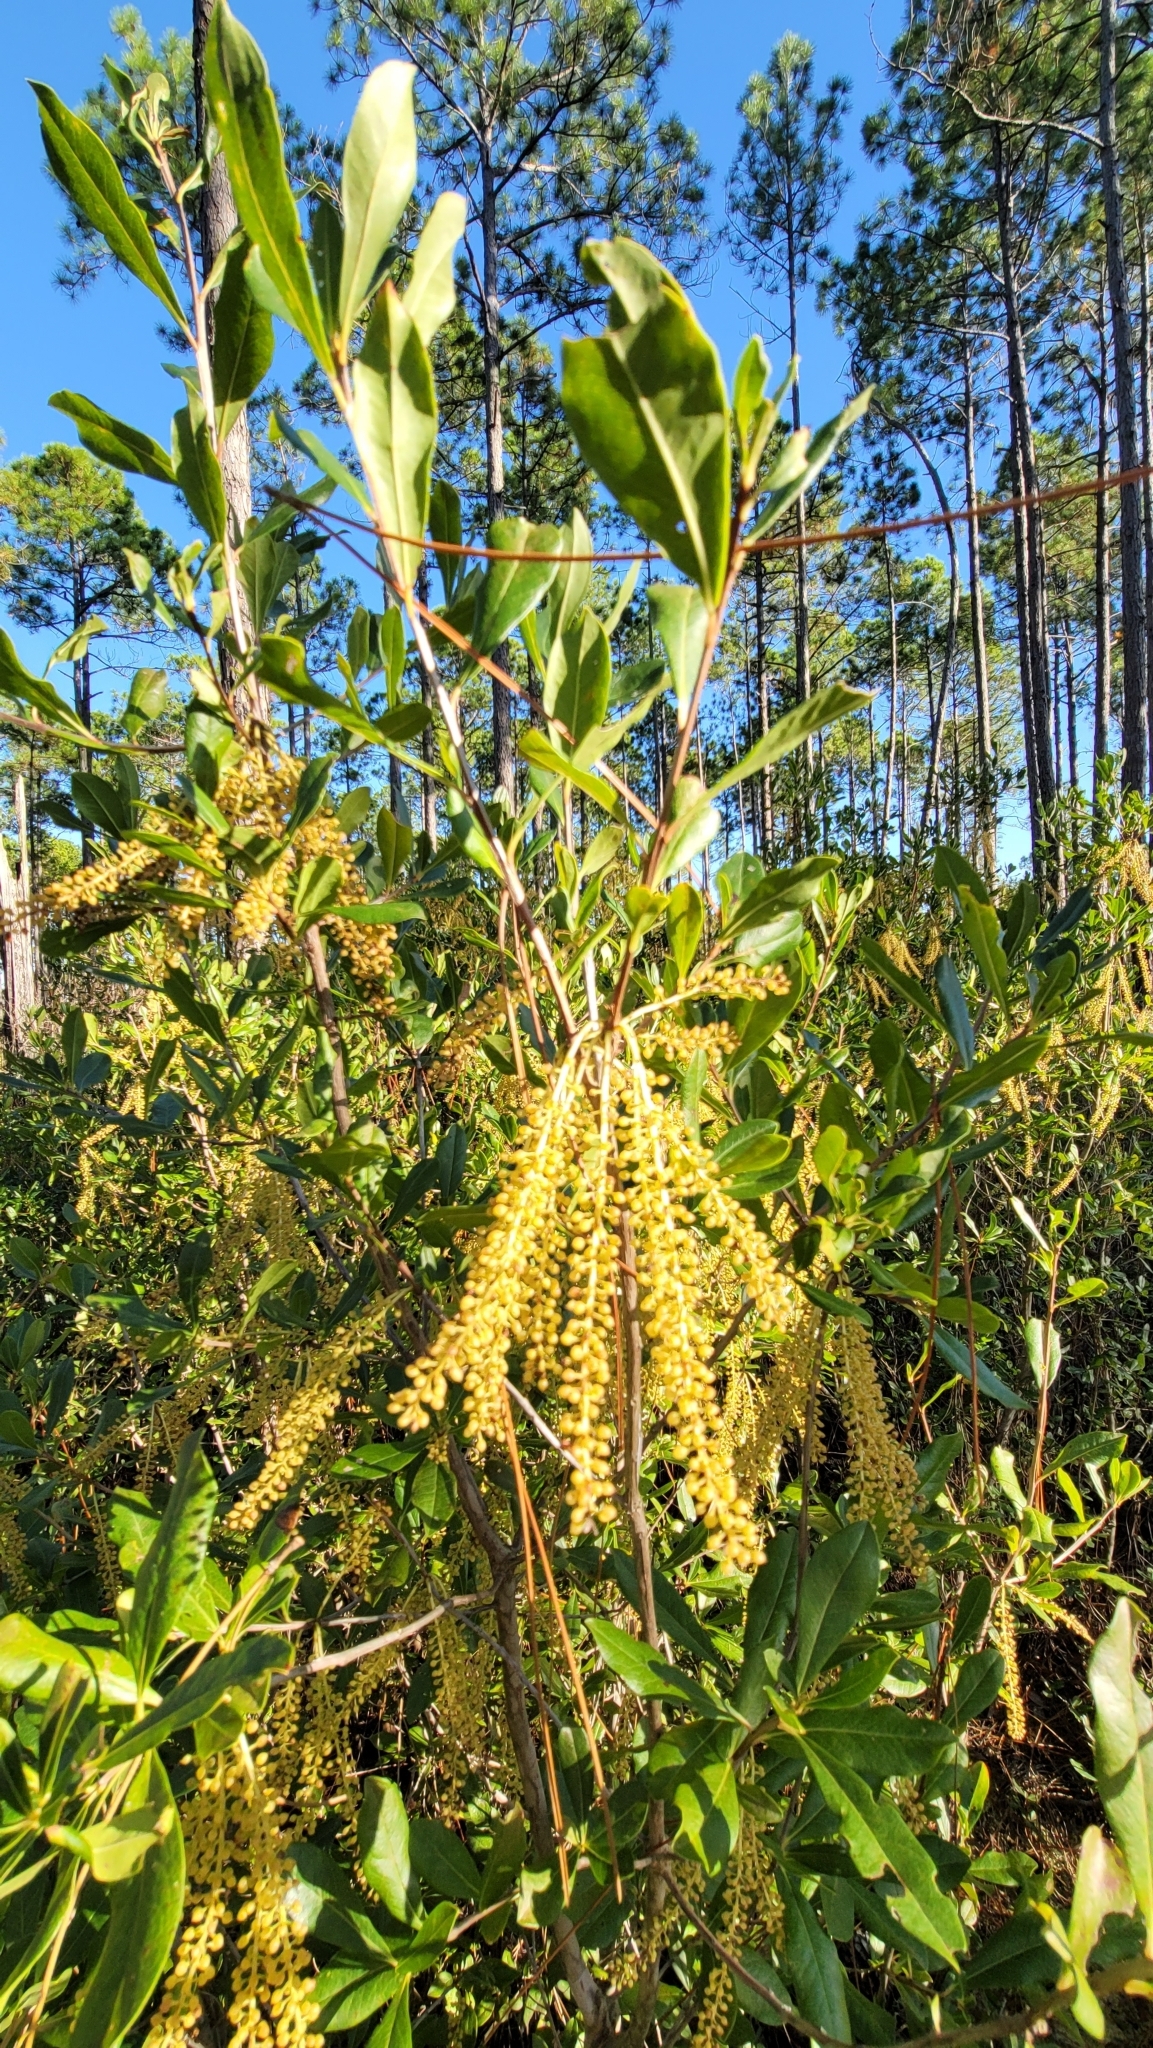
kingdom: Plantae
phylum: Tracheophyta
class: Magnoliopsida
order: Ericales
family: Cyrillaceae
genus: Cyrilla
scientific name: Cyrilla racemiflora
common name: Black titi
